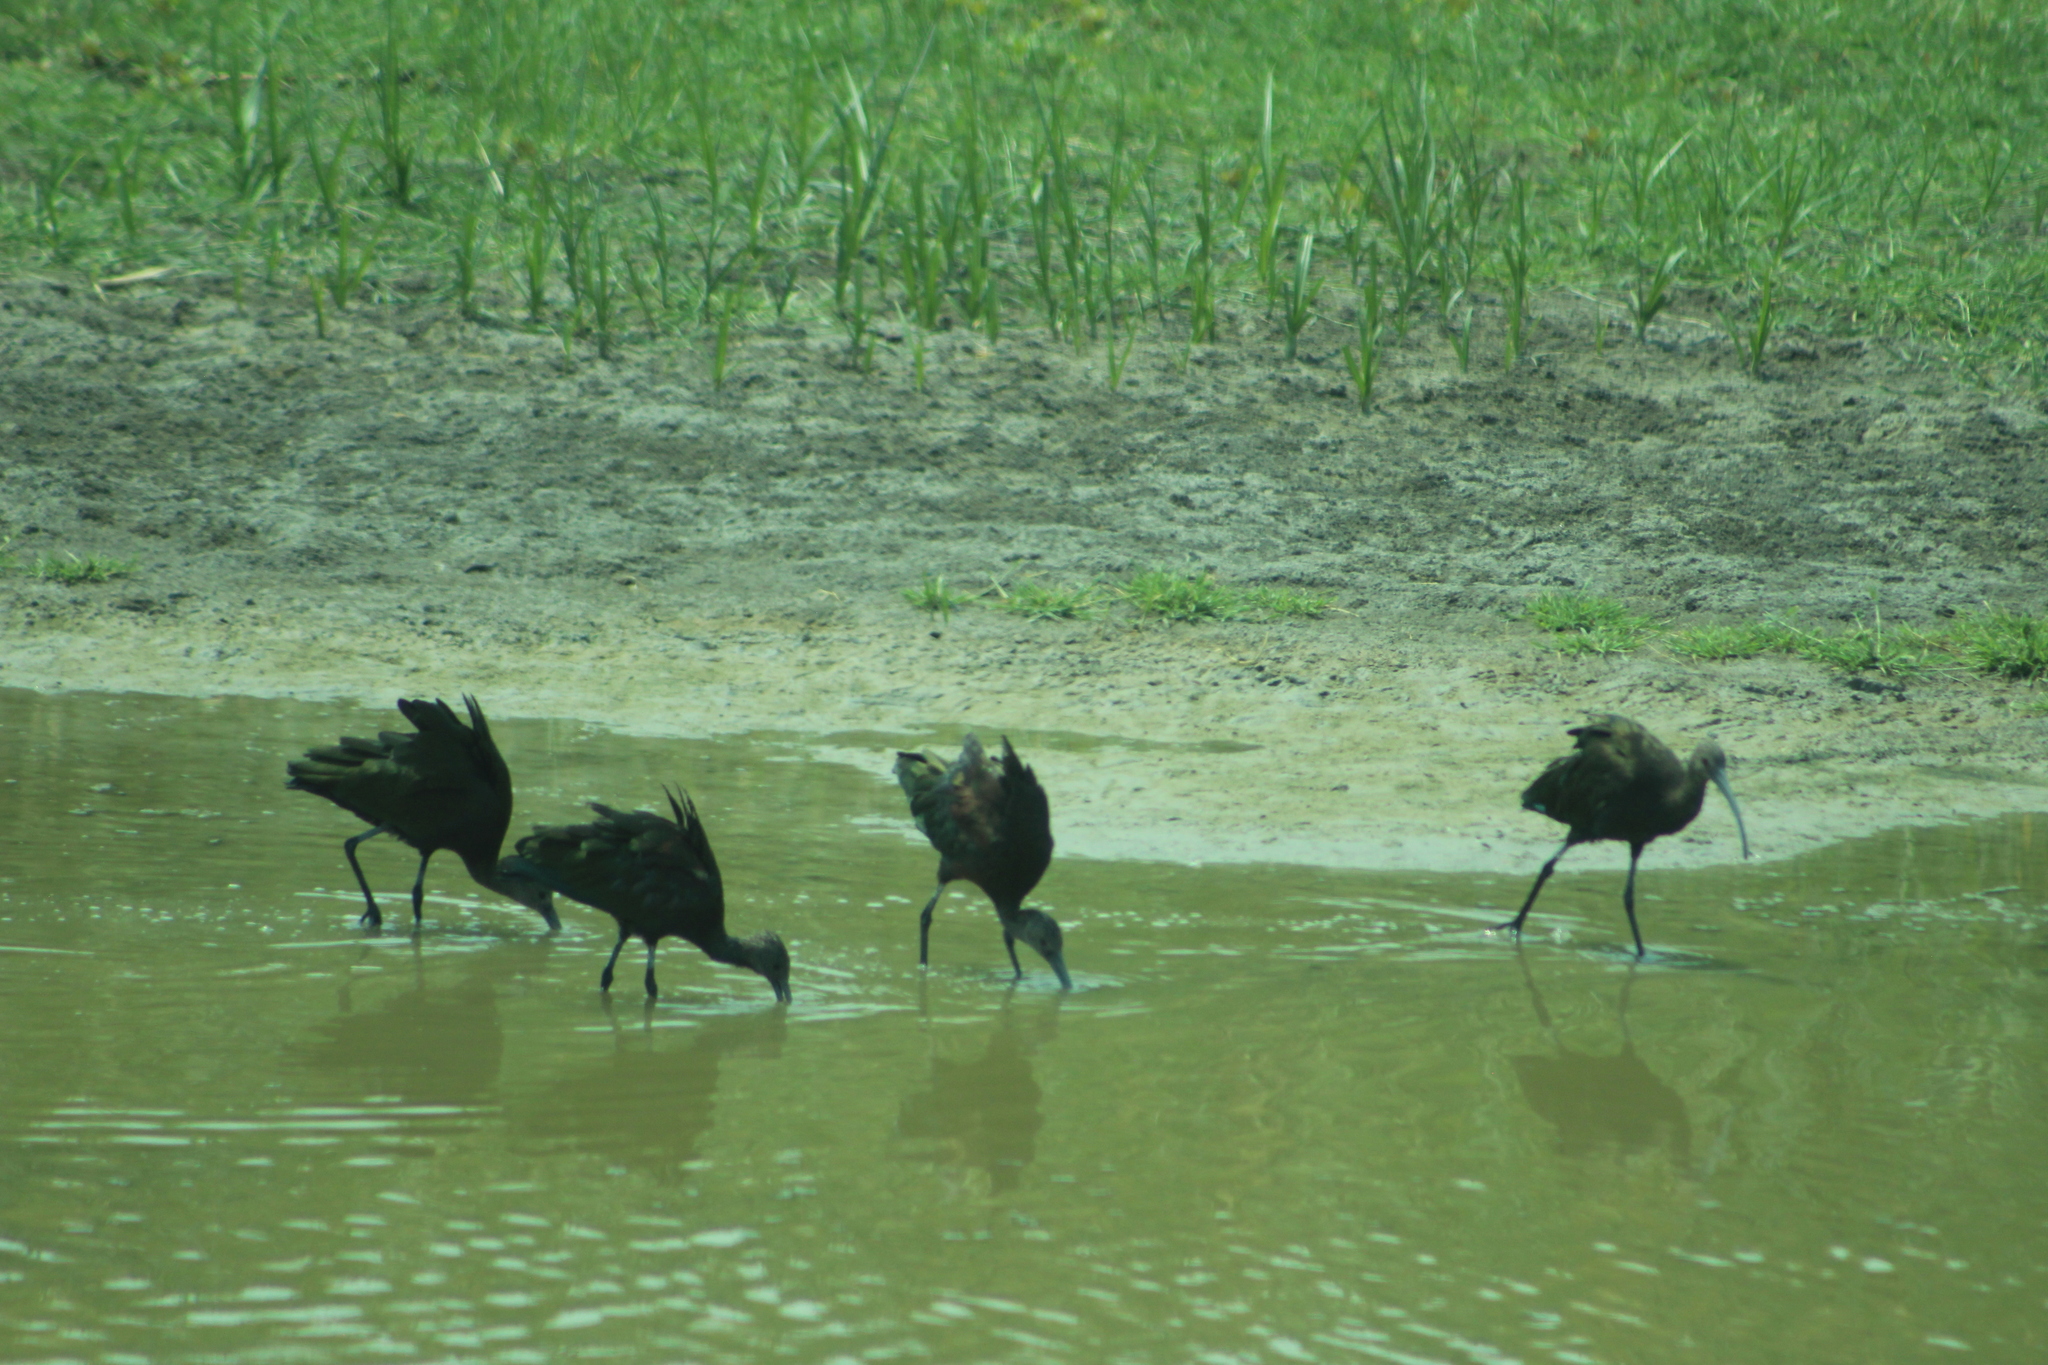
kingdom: Animalia
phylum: Chordata
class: Aves
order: Pelecaniformes
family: Threskiornithidae
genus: Plegadis
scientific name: Plegadis chihi
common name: White-faced ibis
